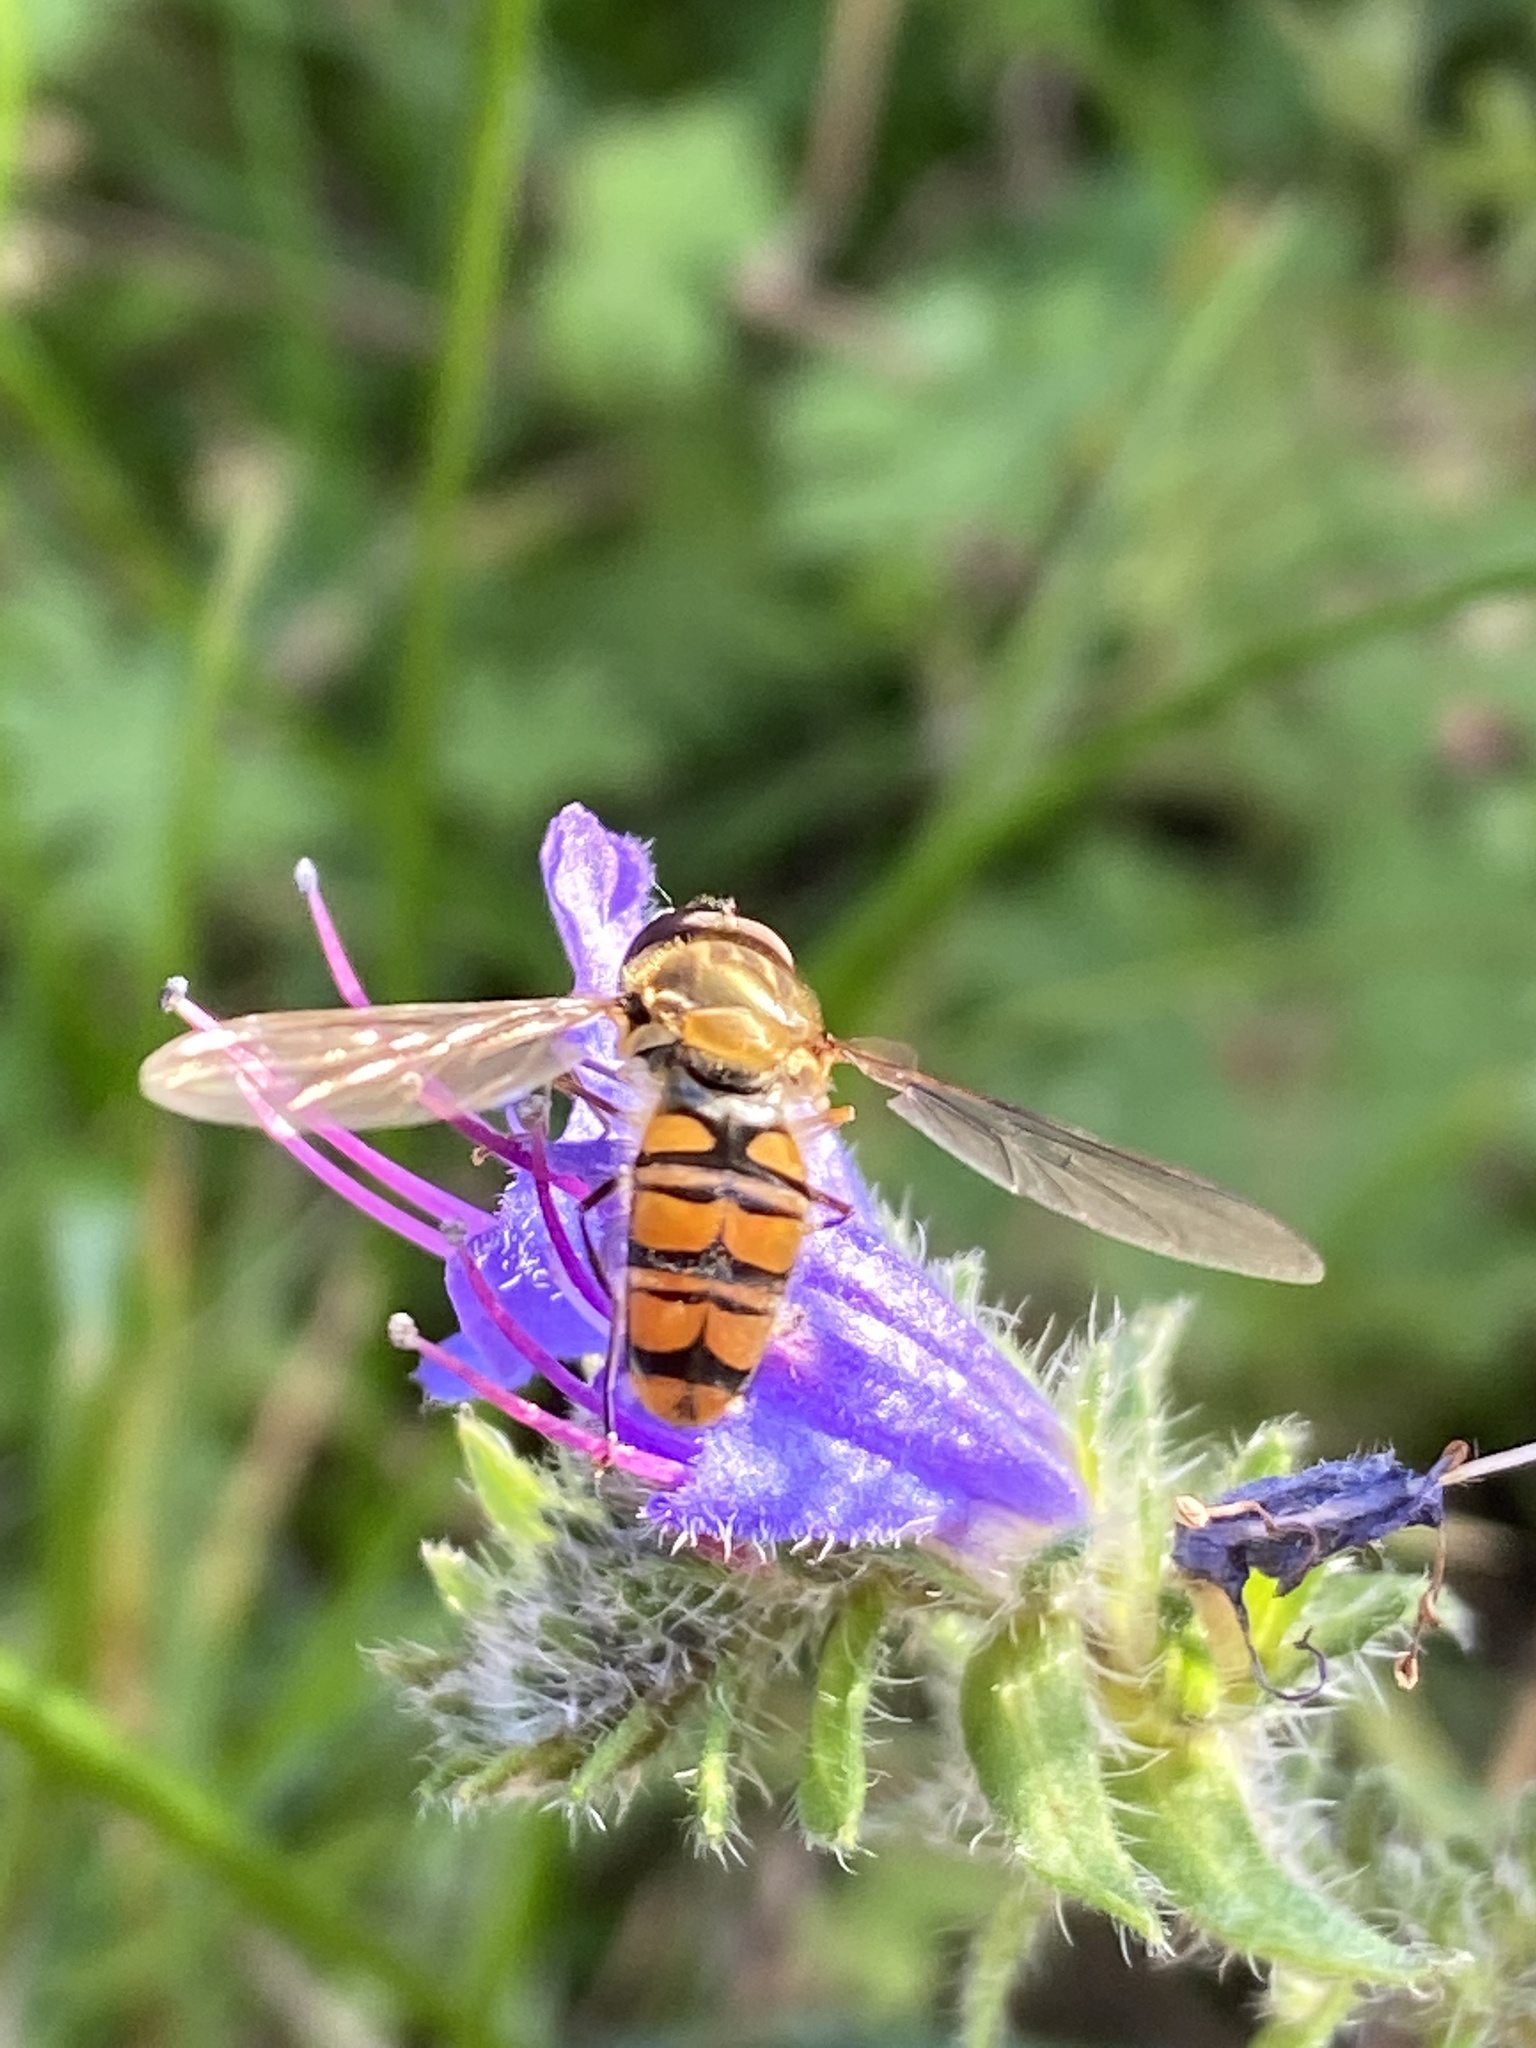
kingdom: Animalia
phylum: Arthropoda
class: Insecta
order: Diptera
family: Syrphidae
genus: Episyrphus
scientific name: Episyrphus balteatus
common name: Marmalade hoverfly
